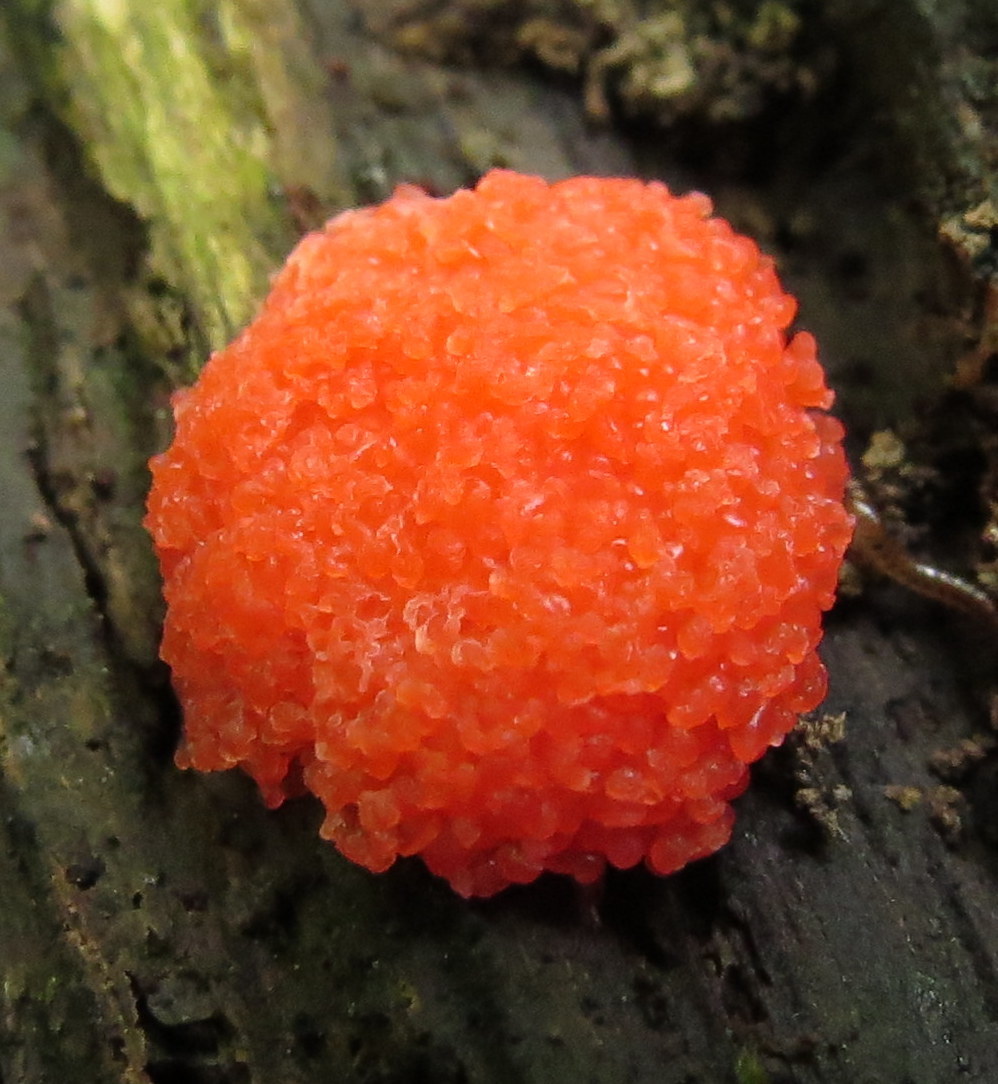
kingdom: Protozoa
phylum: Mycetozoa
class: Myxomycetes
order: Cribrariales
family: Tubiferaceae
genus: Tubifera
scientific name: Tubifera ferruginosa
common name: Red raspberry slime mold
